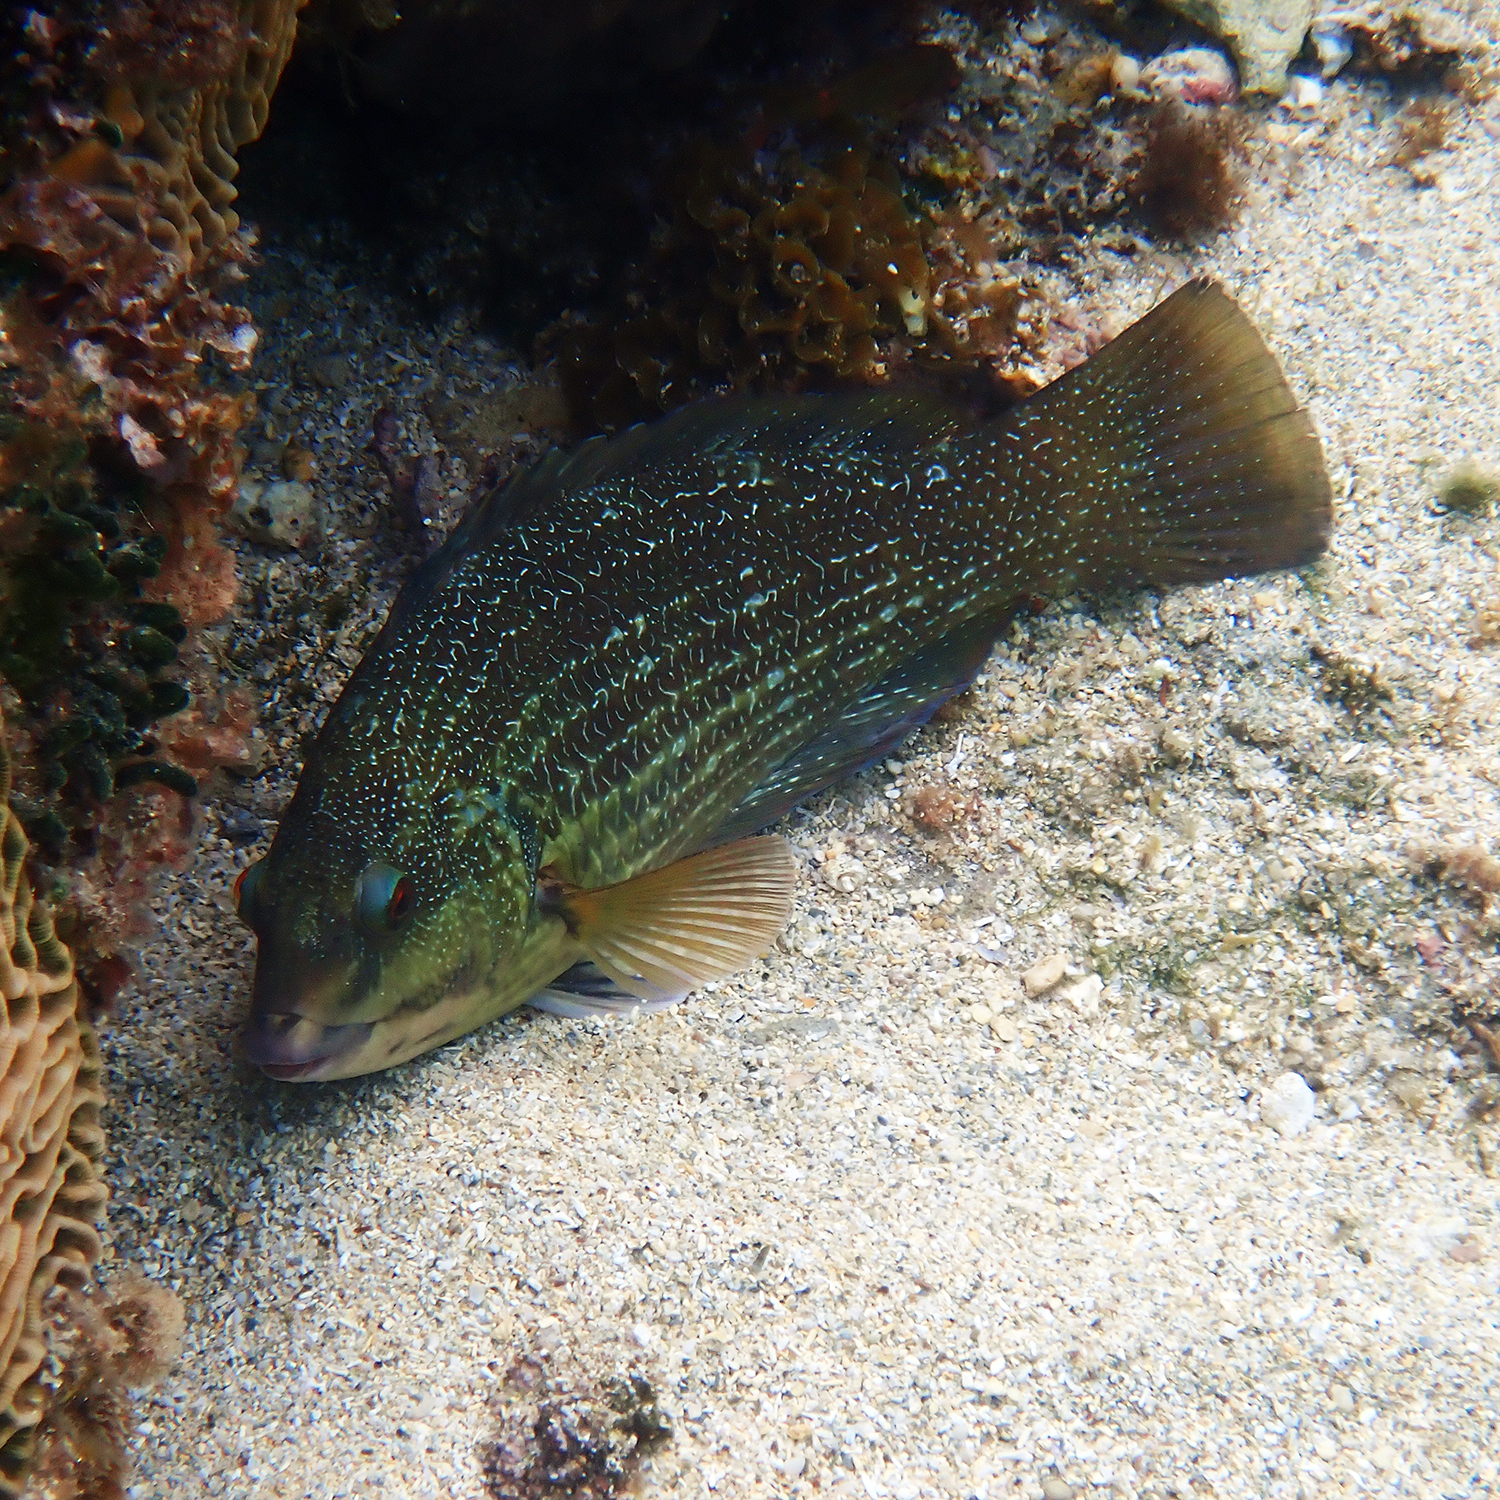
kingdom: Animalia
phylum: Chordata
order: Perciformes
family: Labridae
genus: Notolabrus
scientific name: Notolabrus inscriptus
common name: Green wrasse
